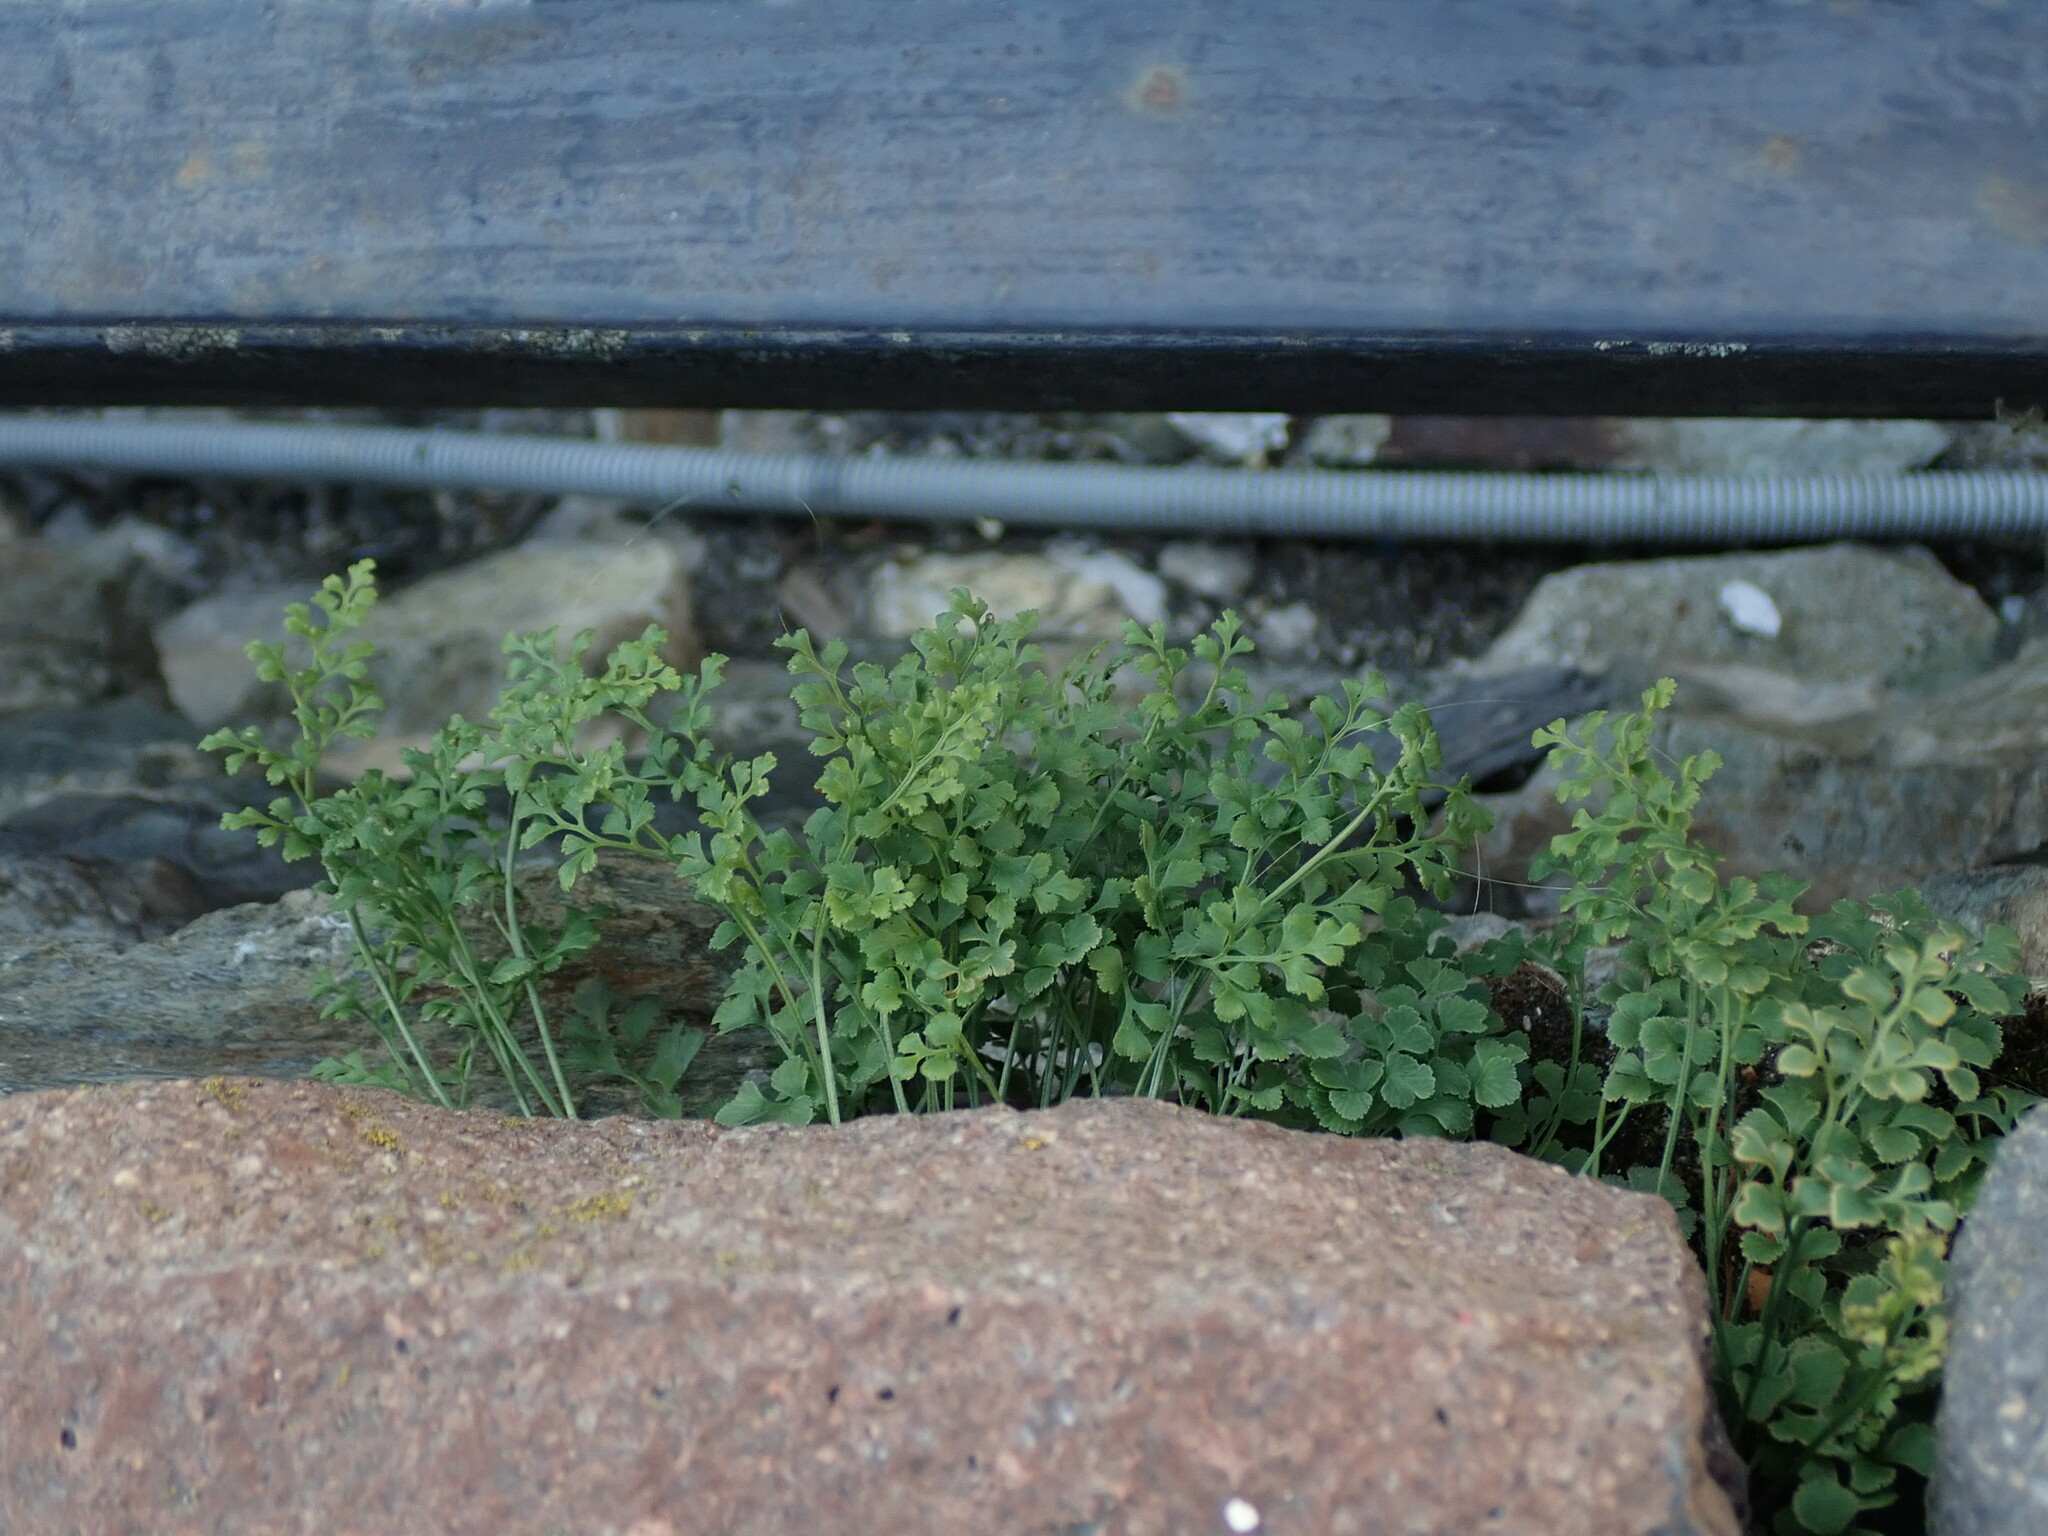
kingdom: Plantae
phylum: Tracheophyta
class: Polypodiopsida
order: Polypodiales
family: Aspleniaceae
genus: Asplenium
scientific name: Asplenium ruta-muraria
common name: Wall-rue
